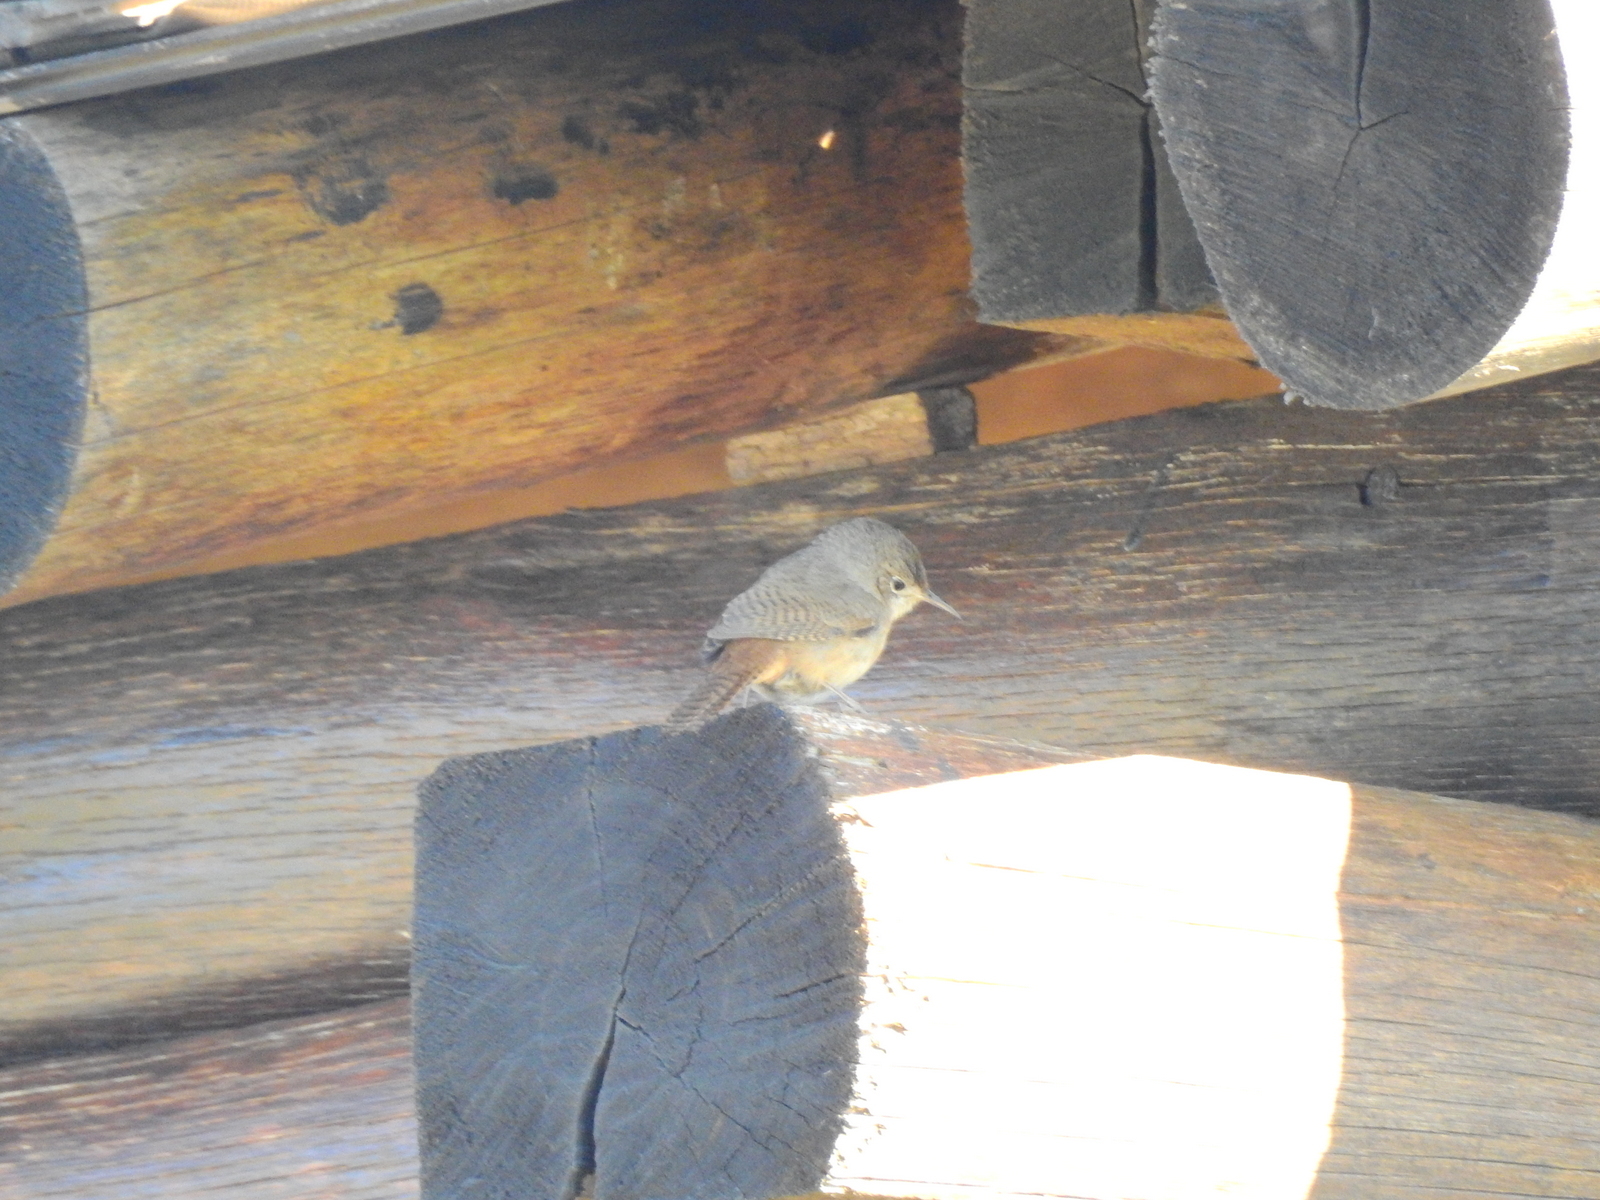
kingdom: Animalia
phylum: Chordata
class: Aves
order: Passeriformes
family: Troglodytidae
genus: Troglodytes
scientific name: Troglodytes aedon
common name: House wren
